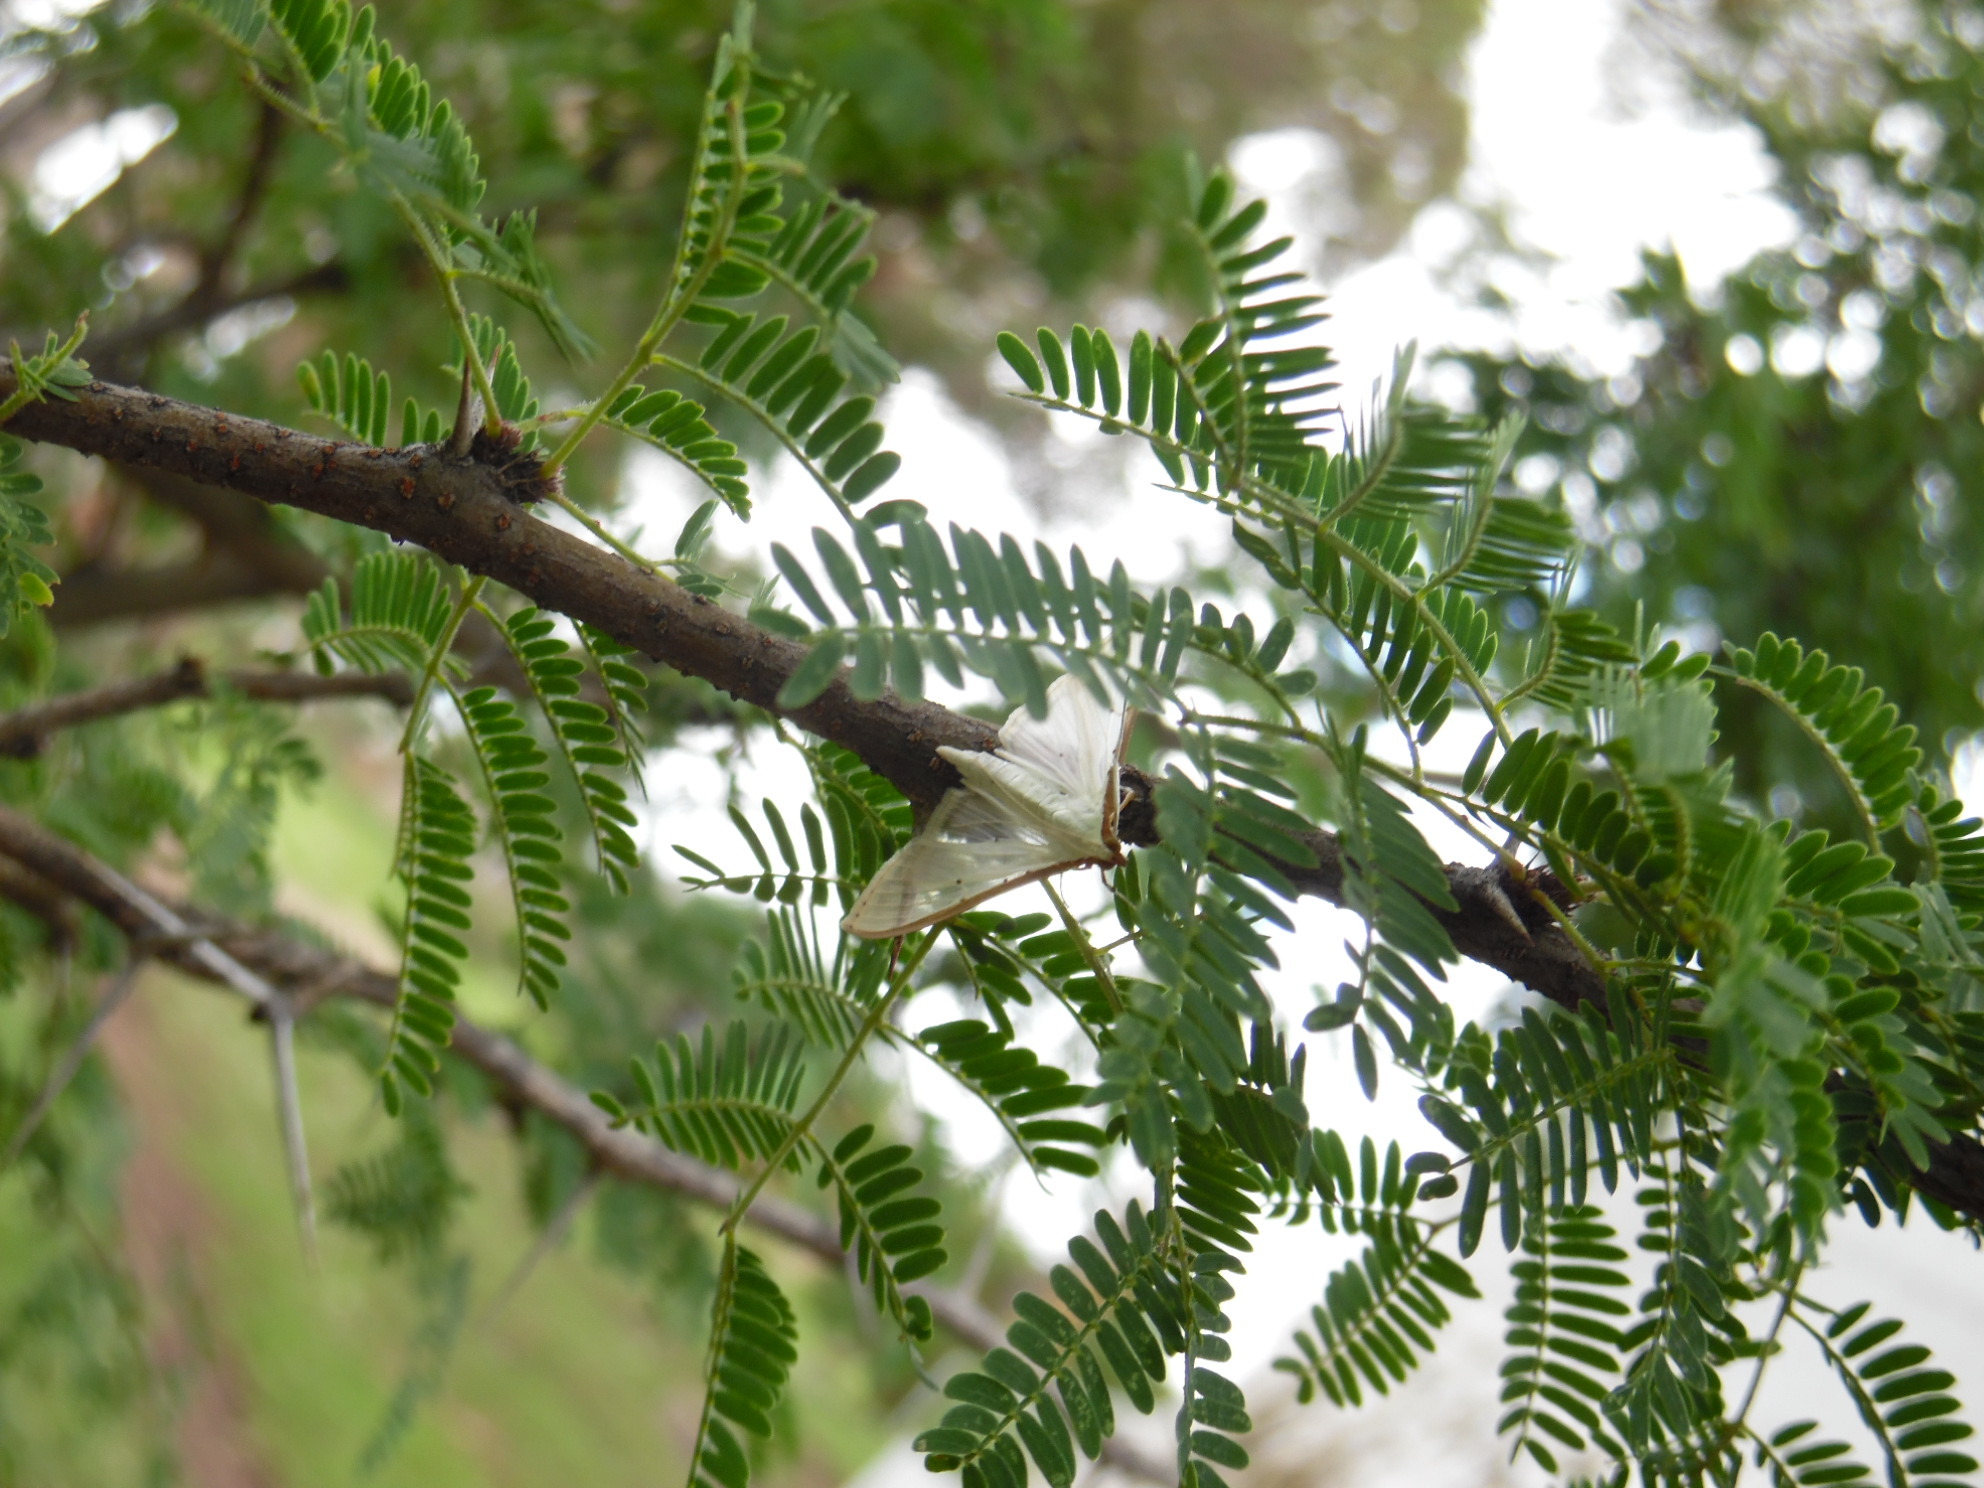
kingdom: Animalia
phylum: Arthropoda
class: Insecta
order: Lepidoptera
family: Crambidae
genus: Palpita
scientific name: Palpita quadristigmalis
